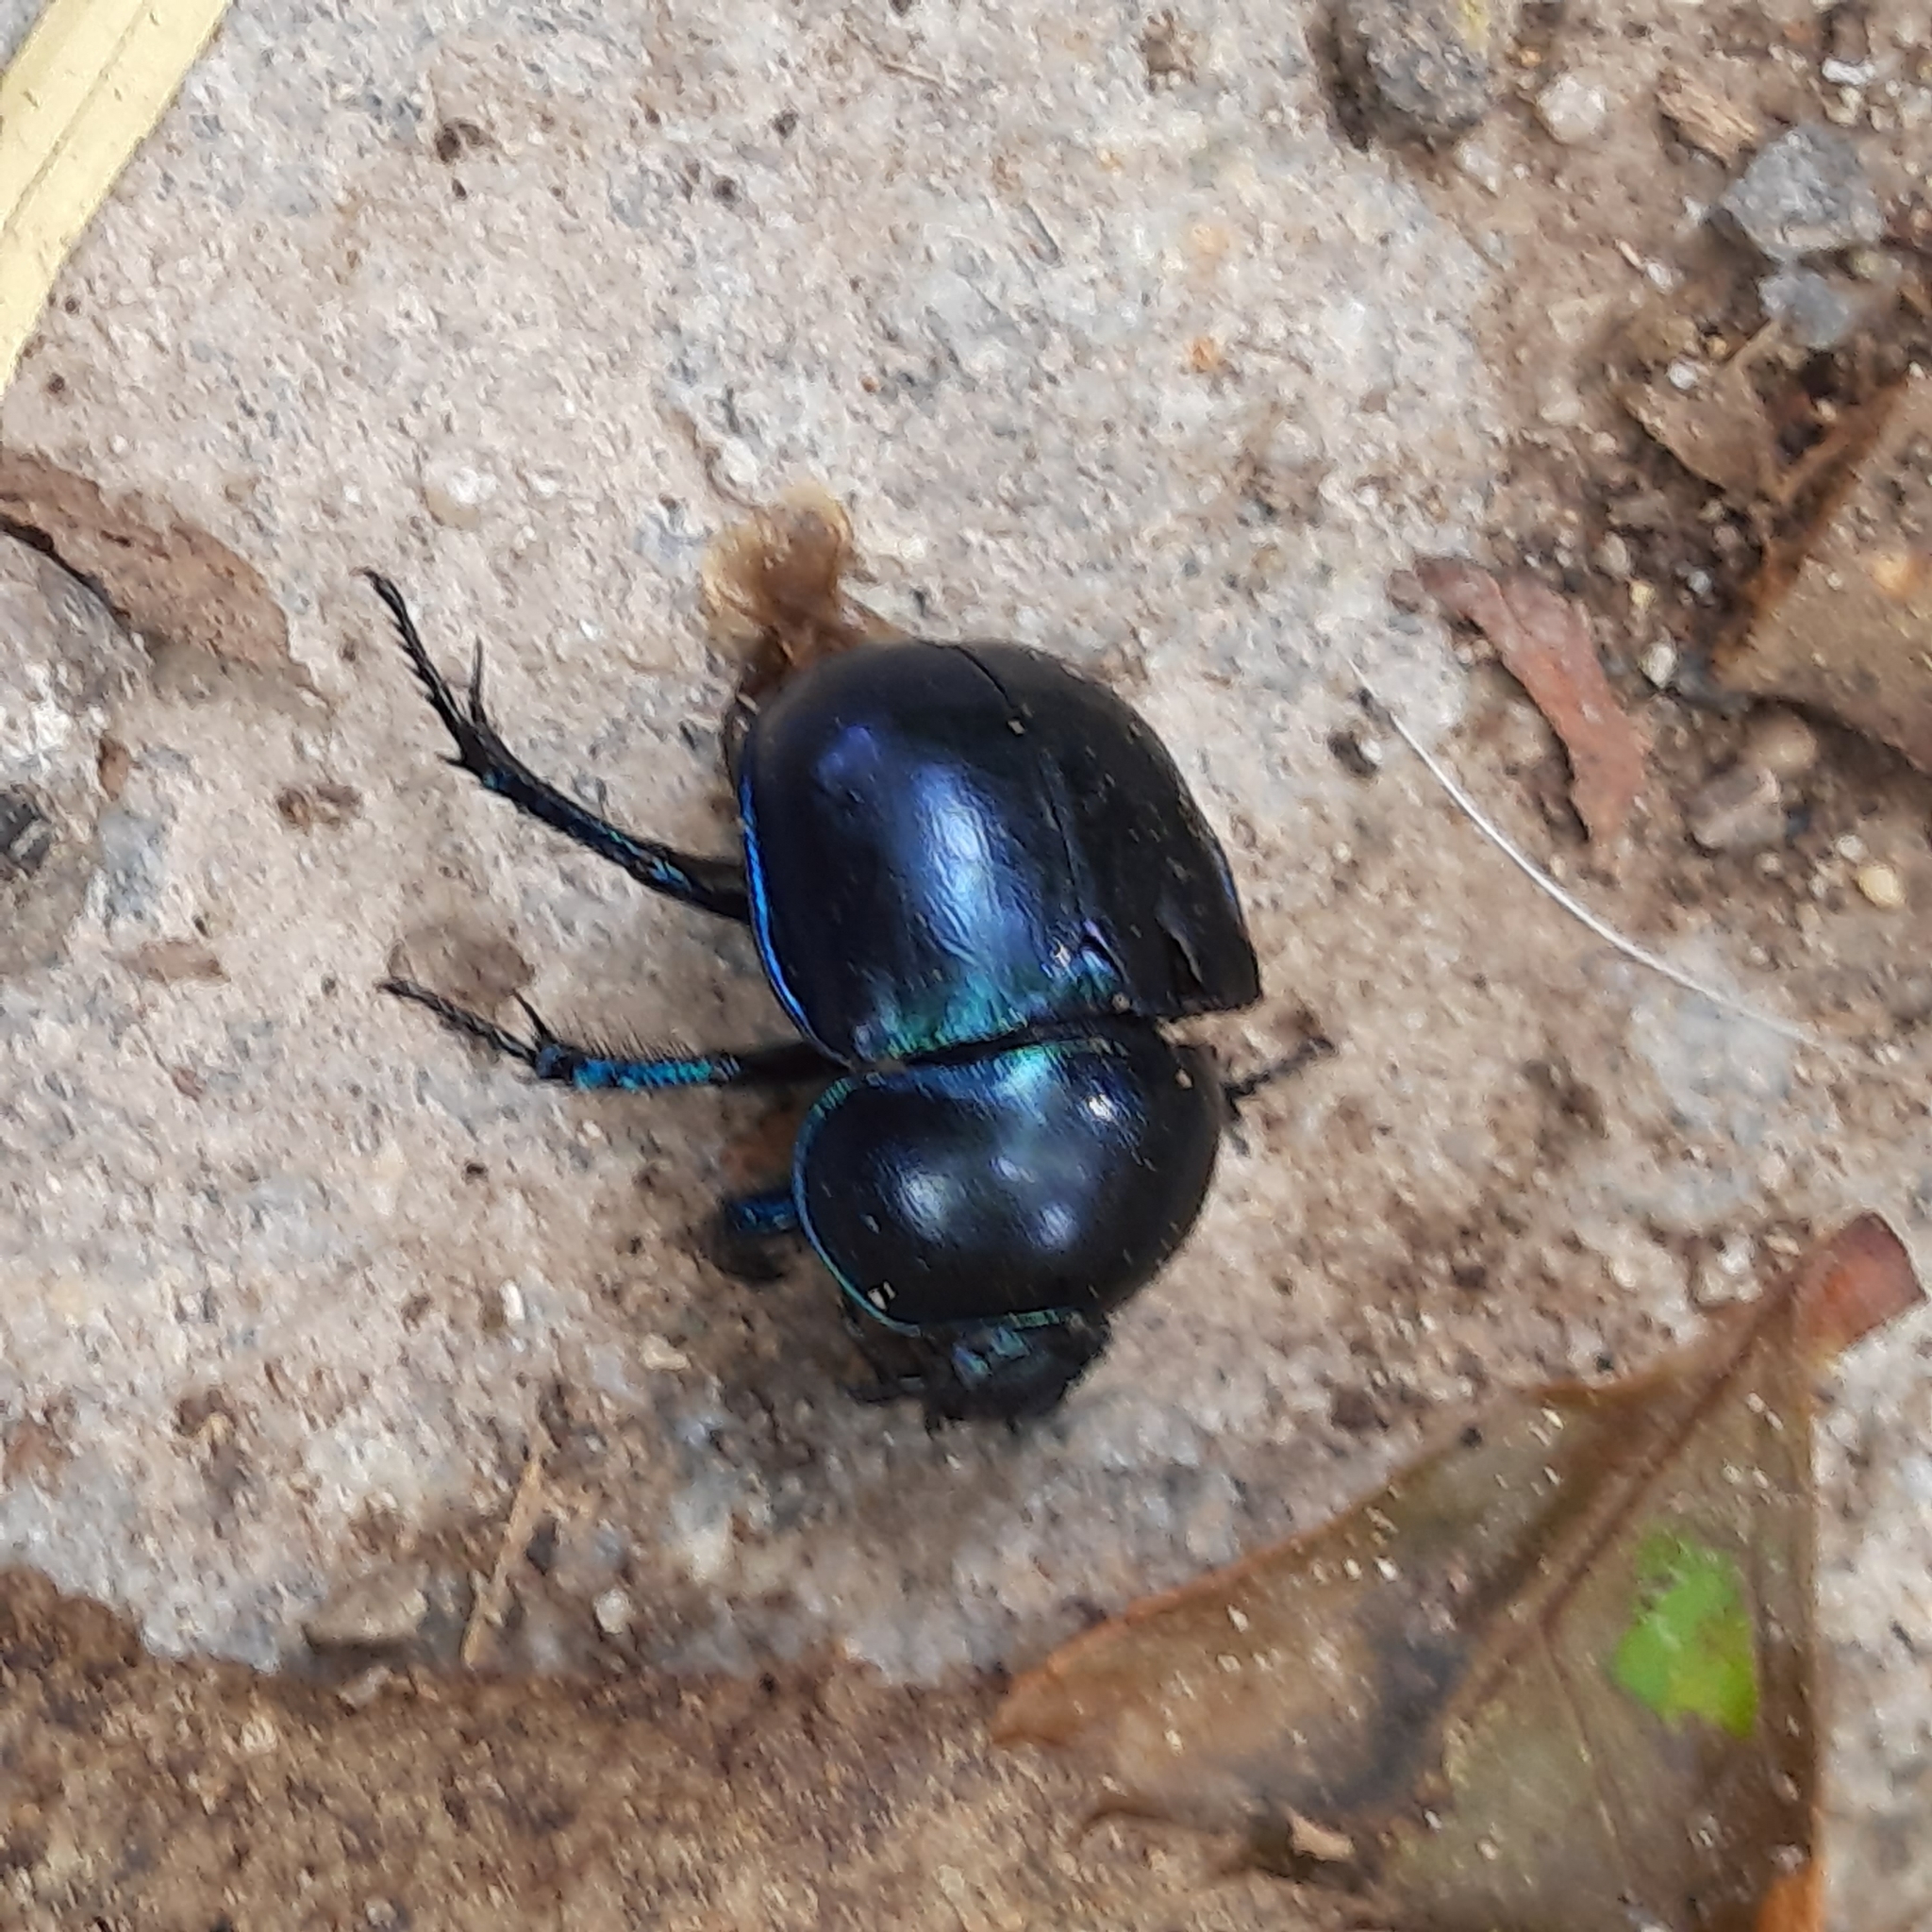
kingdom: Animalia
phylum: Arthropoda
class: Insecta
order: Coleoptera
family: Geotrupidae
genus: Trypocopris
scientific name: Trypocopris vernalis
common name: Spring dumbledor
